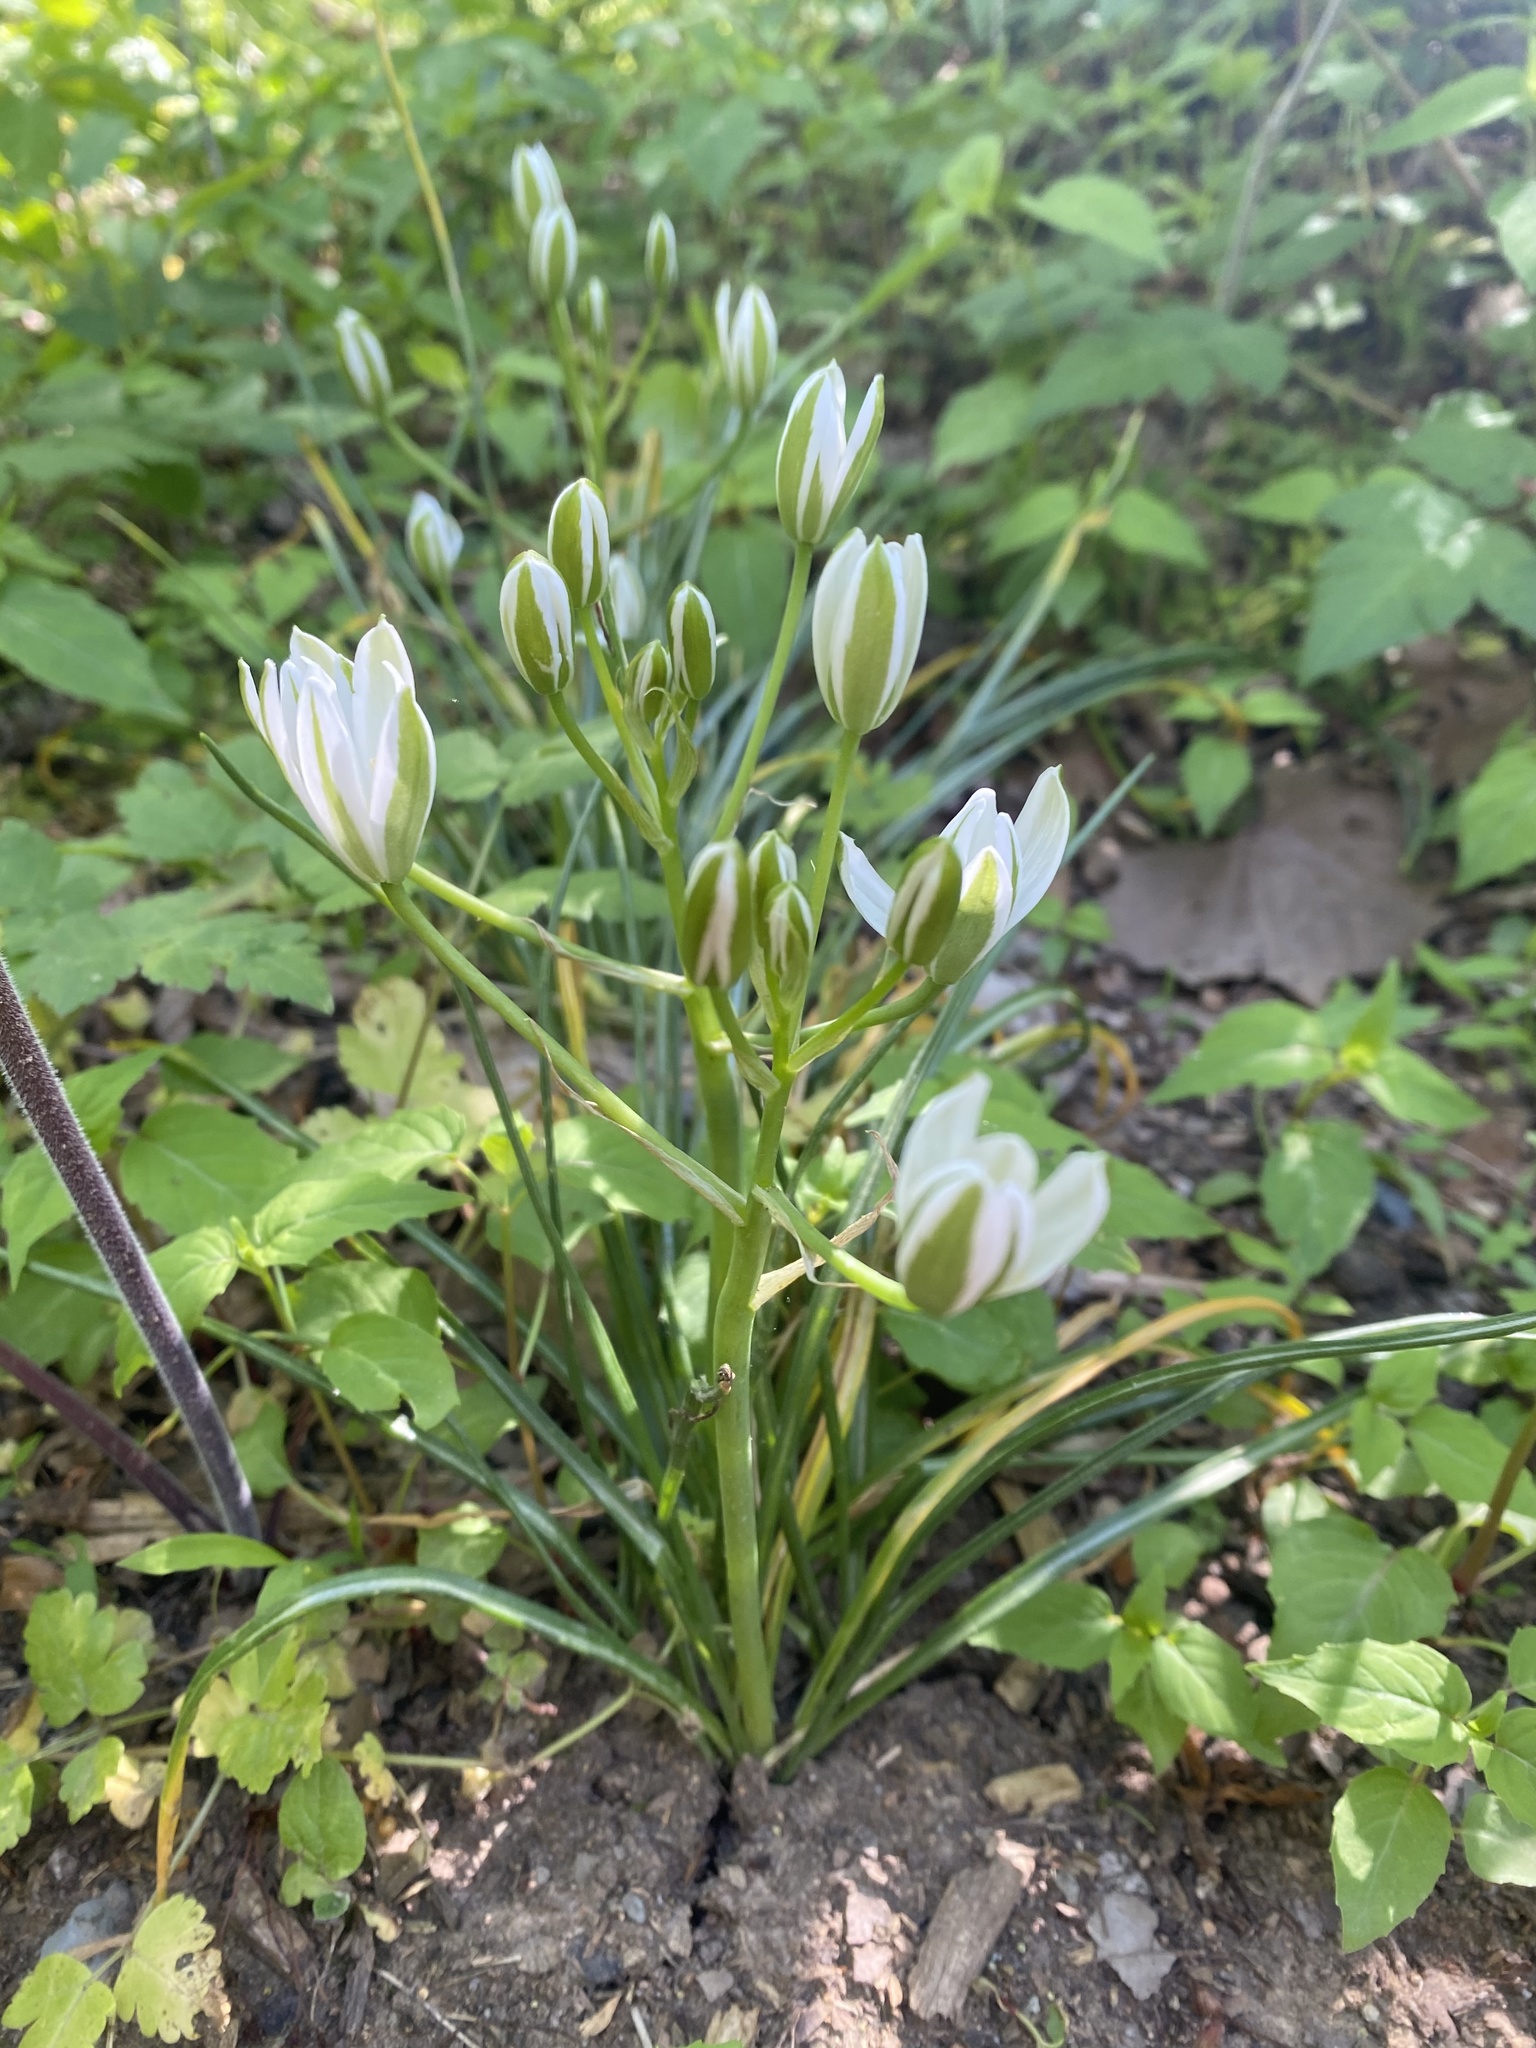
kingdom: Plantae
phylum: Tracheophyta
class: Liliopsida
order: Asparagales
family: Asparagaceae
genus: Ornithogalum
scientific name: Ornithogalum umbellatum
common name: Garden star-of-bethlehem
